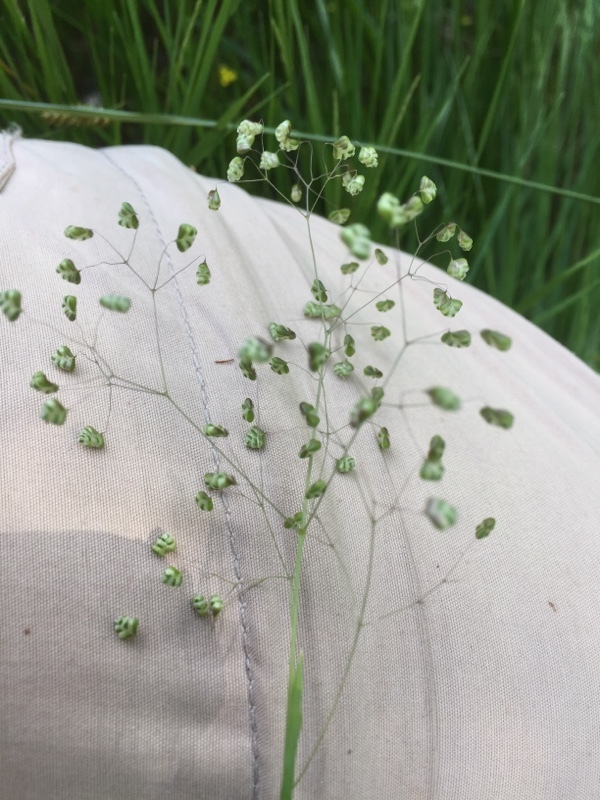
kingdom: Plantae
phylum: Tracheophyta
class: Liliopsida
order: Poales
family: Poaceae
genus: Briza
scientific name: Briza minor
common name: Lesser quaking-grass
